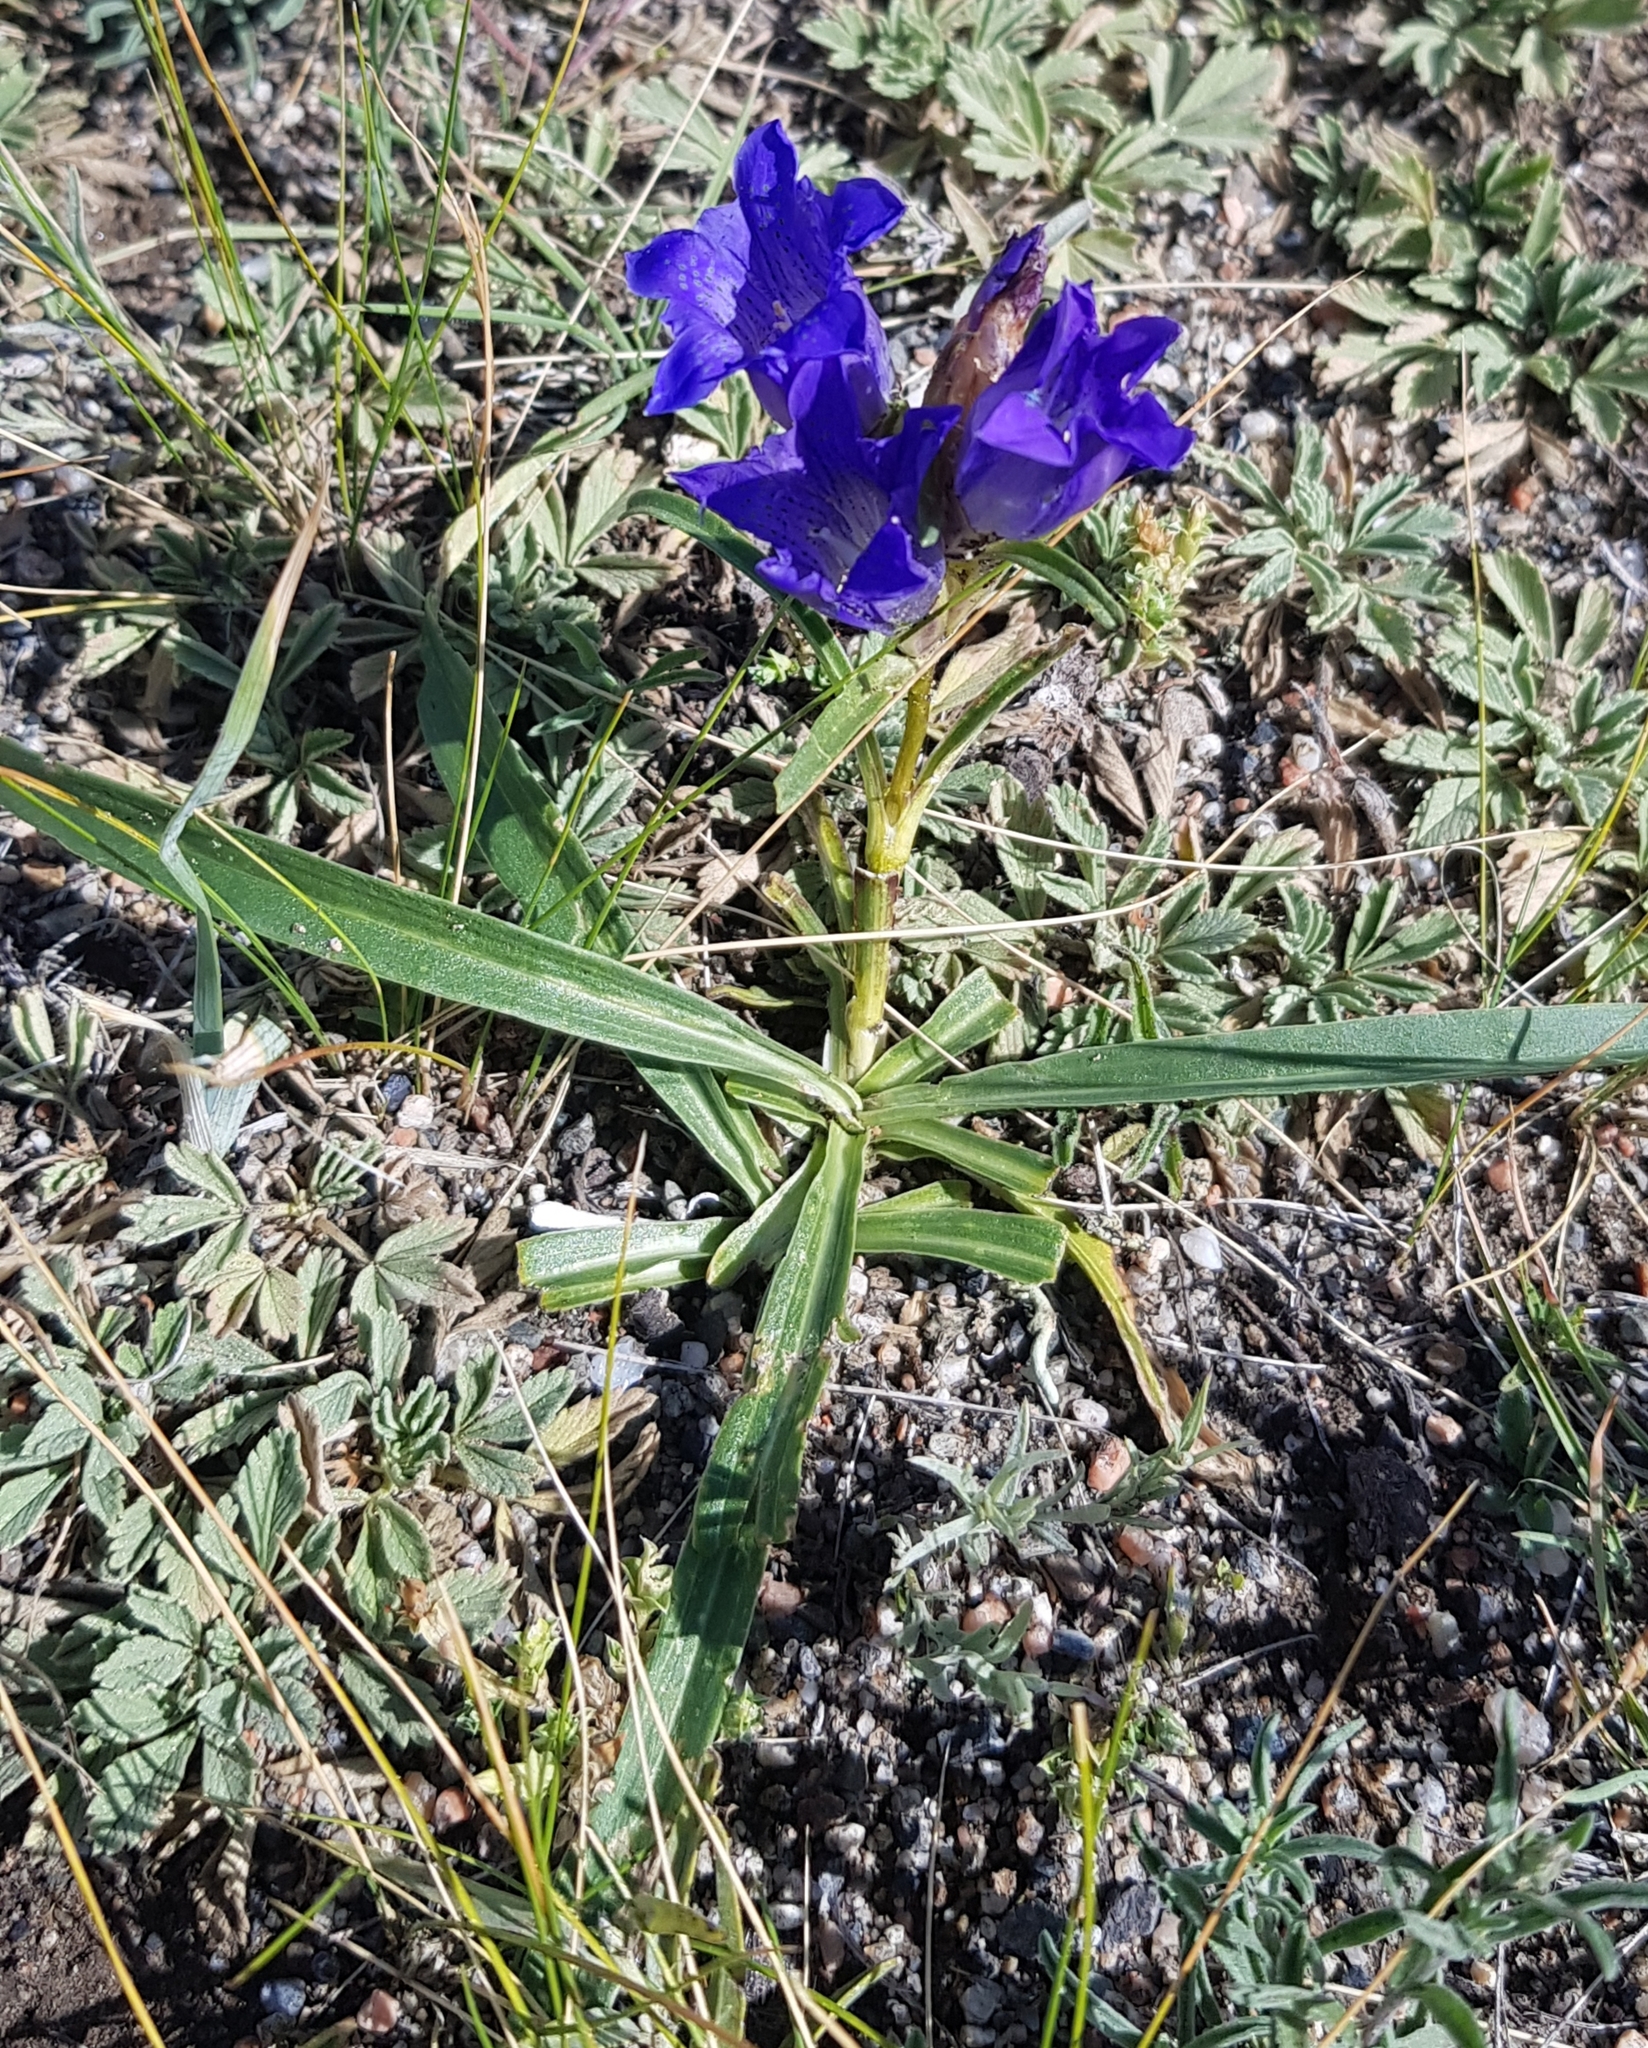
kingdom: Plantae
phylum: Tracheophyta
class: Magnoliopsida
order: Gentianales
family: Gentianaceae
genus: Gentiana
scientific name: Gentiana decumbens
